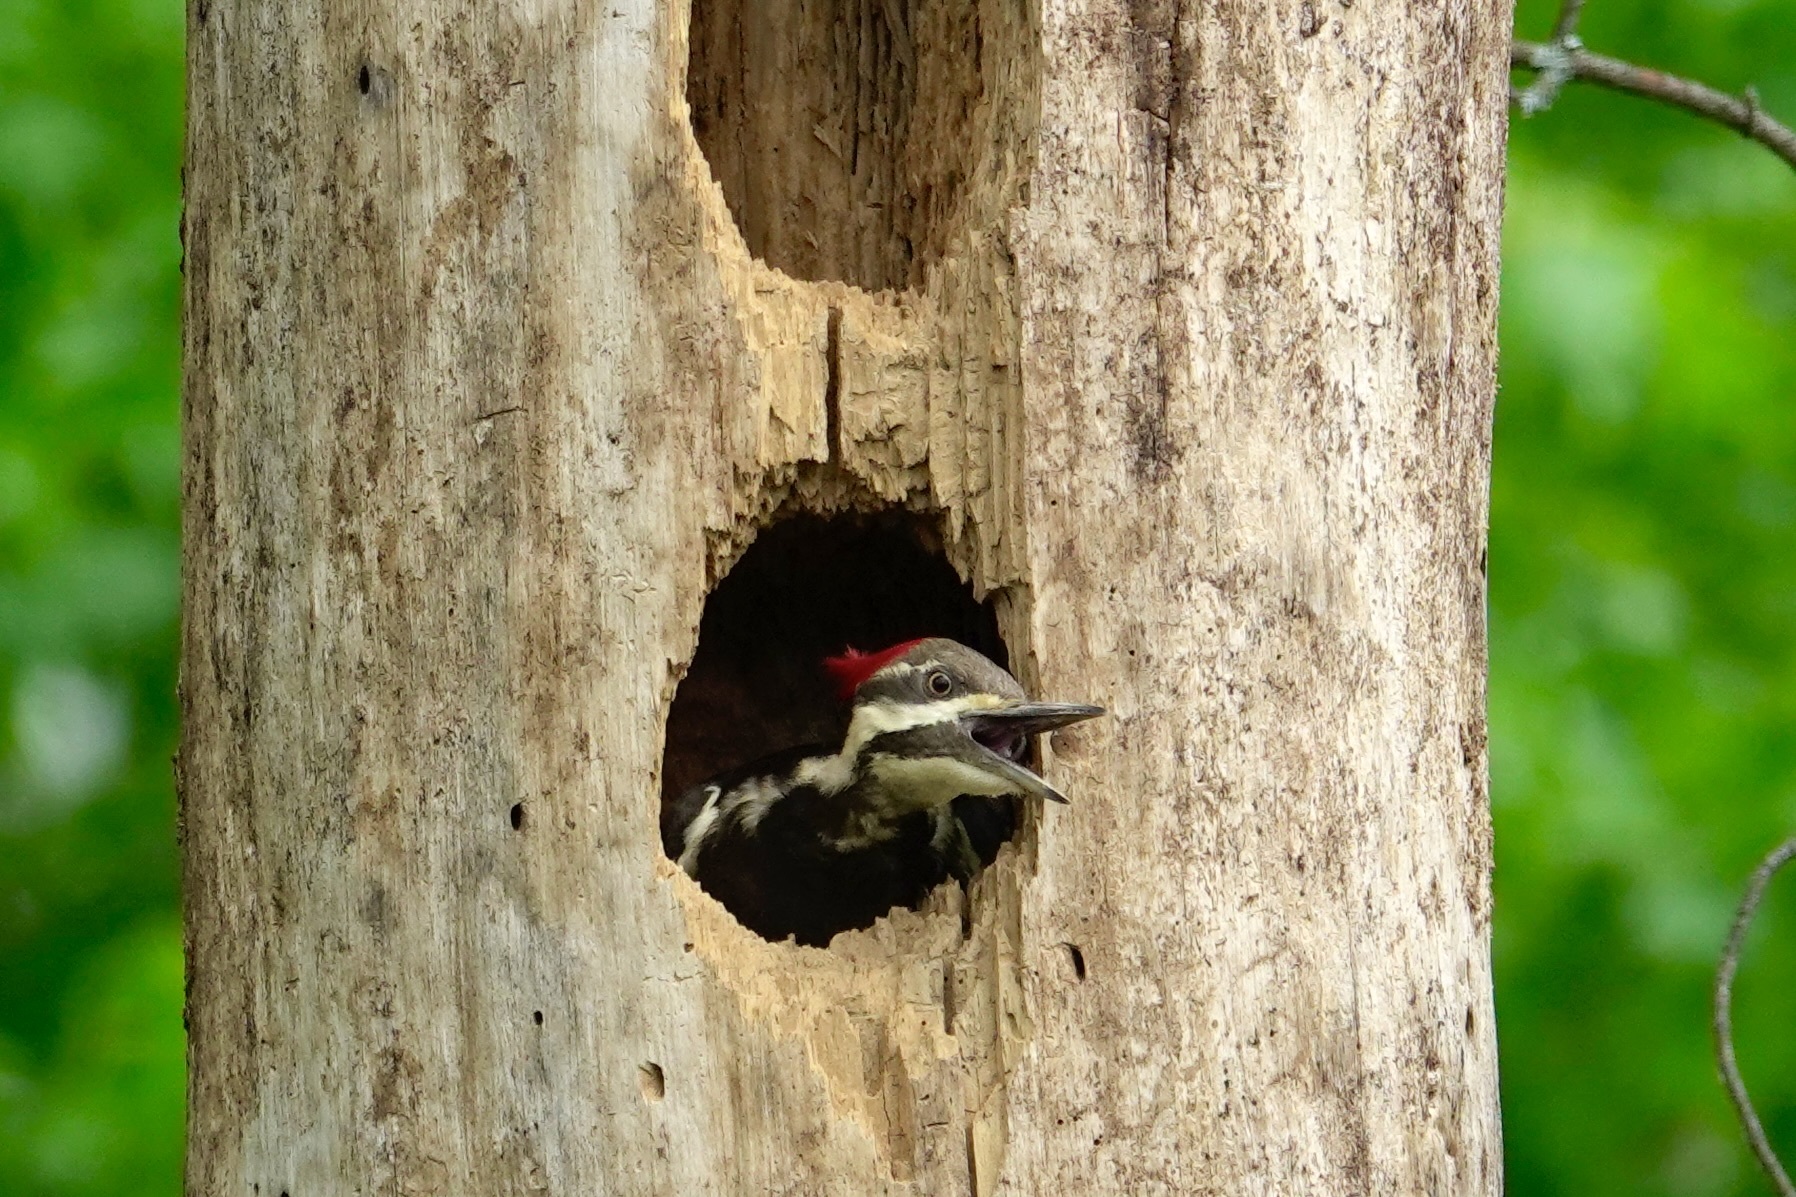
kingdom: Animalia
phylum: Chordata
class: Aves
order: Piciformes
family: Picidae
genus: Dryocopus
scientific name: Dryocopus pileatus
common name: Pileated woodpecker
